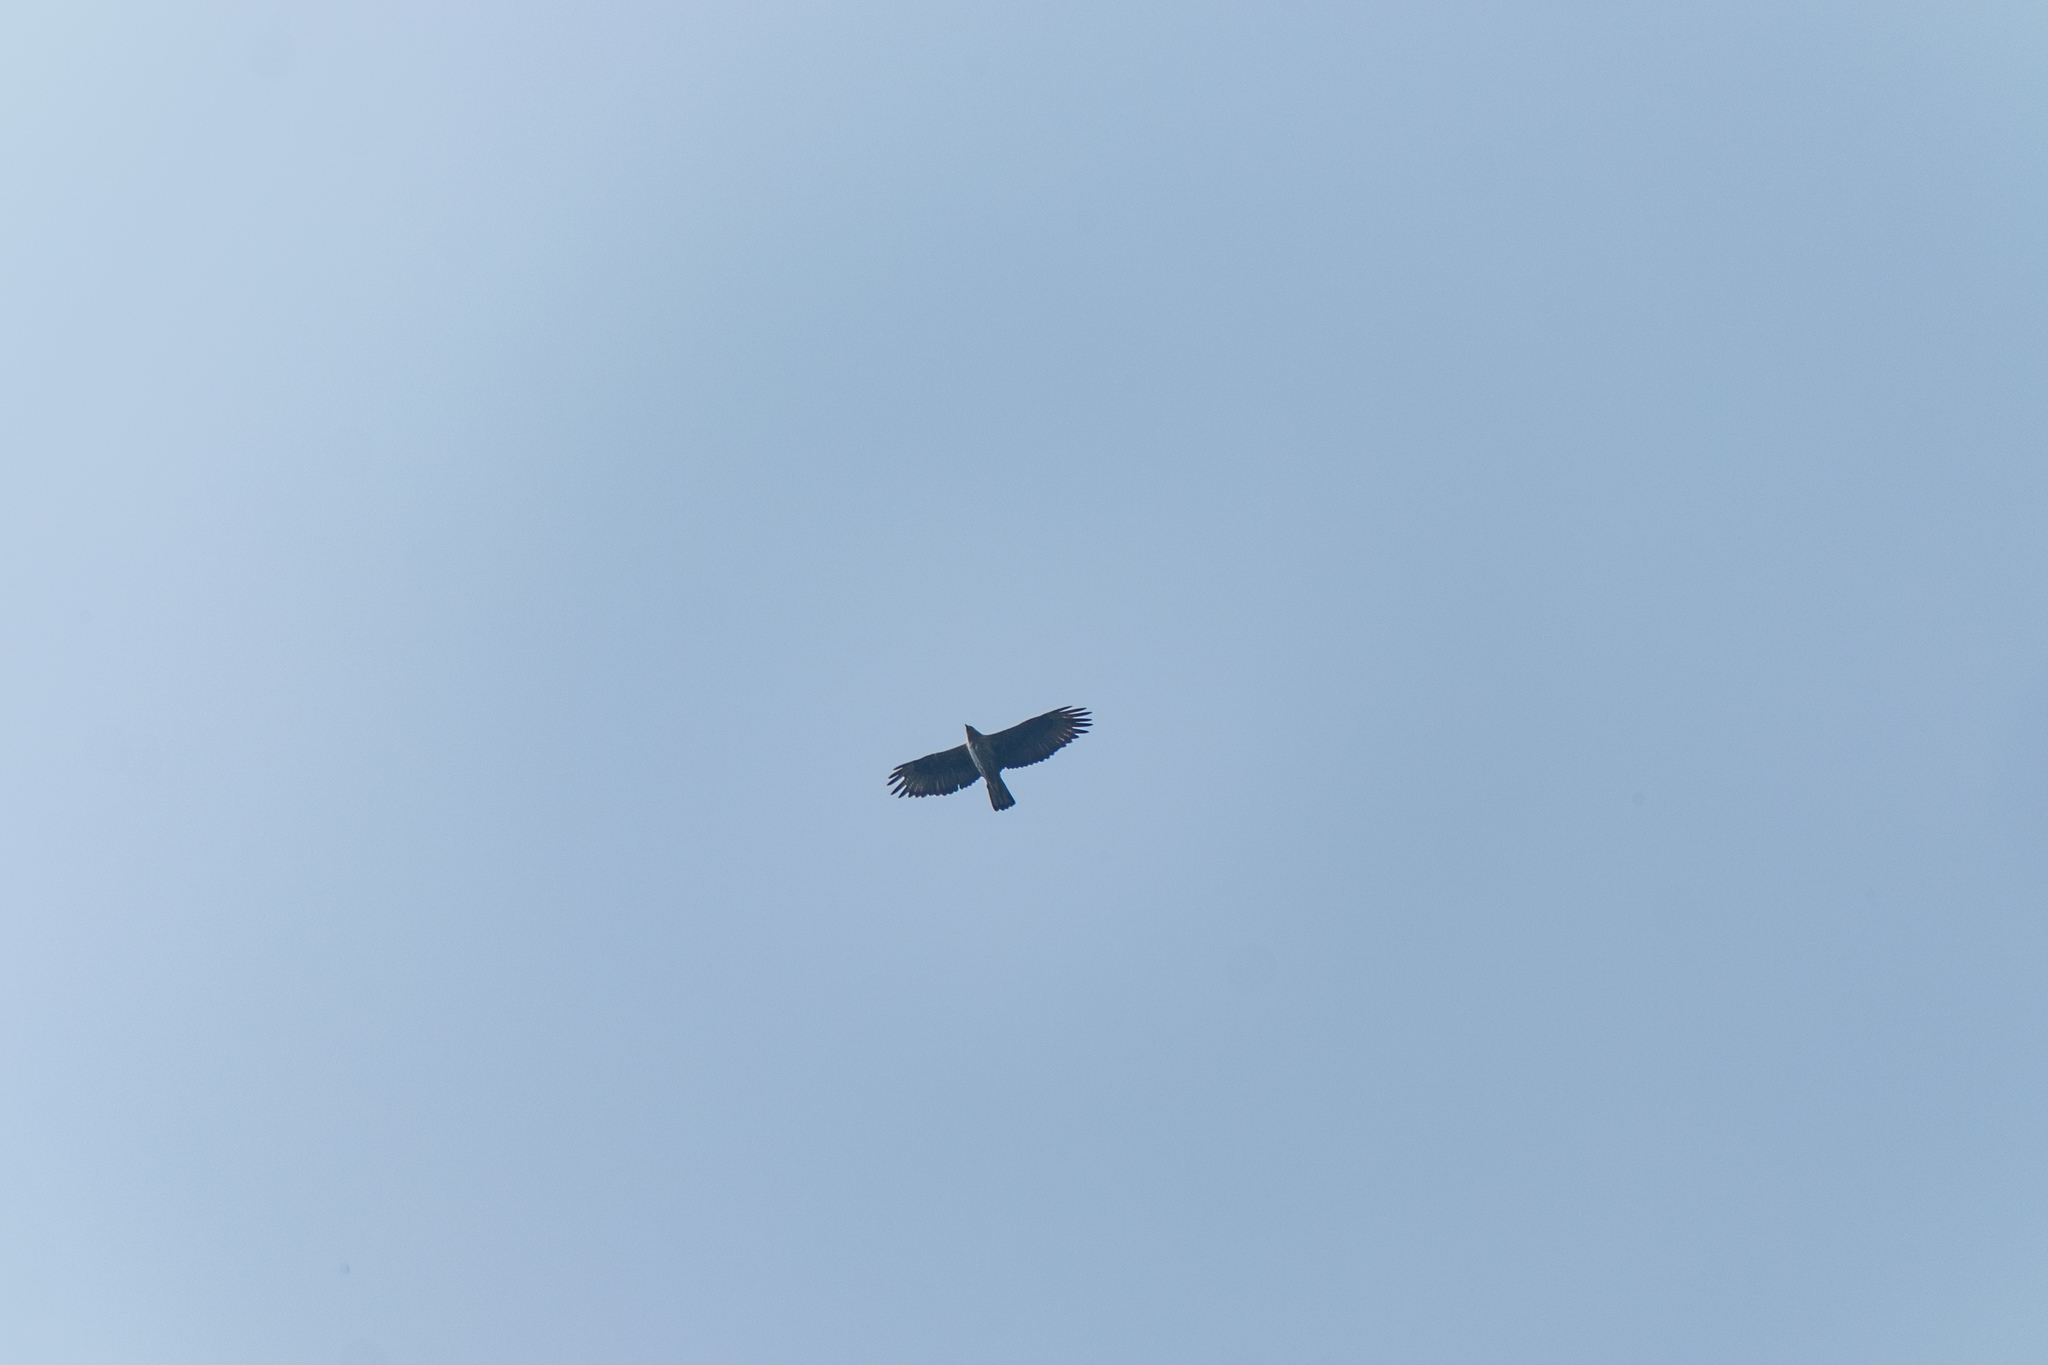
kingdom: Animalia
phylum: Chordata
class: Aves
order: Accipitriformes
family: Accipitridae
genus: Aquila
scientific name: Aquila fasciata
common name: Bonelli's eagle
